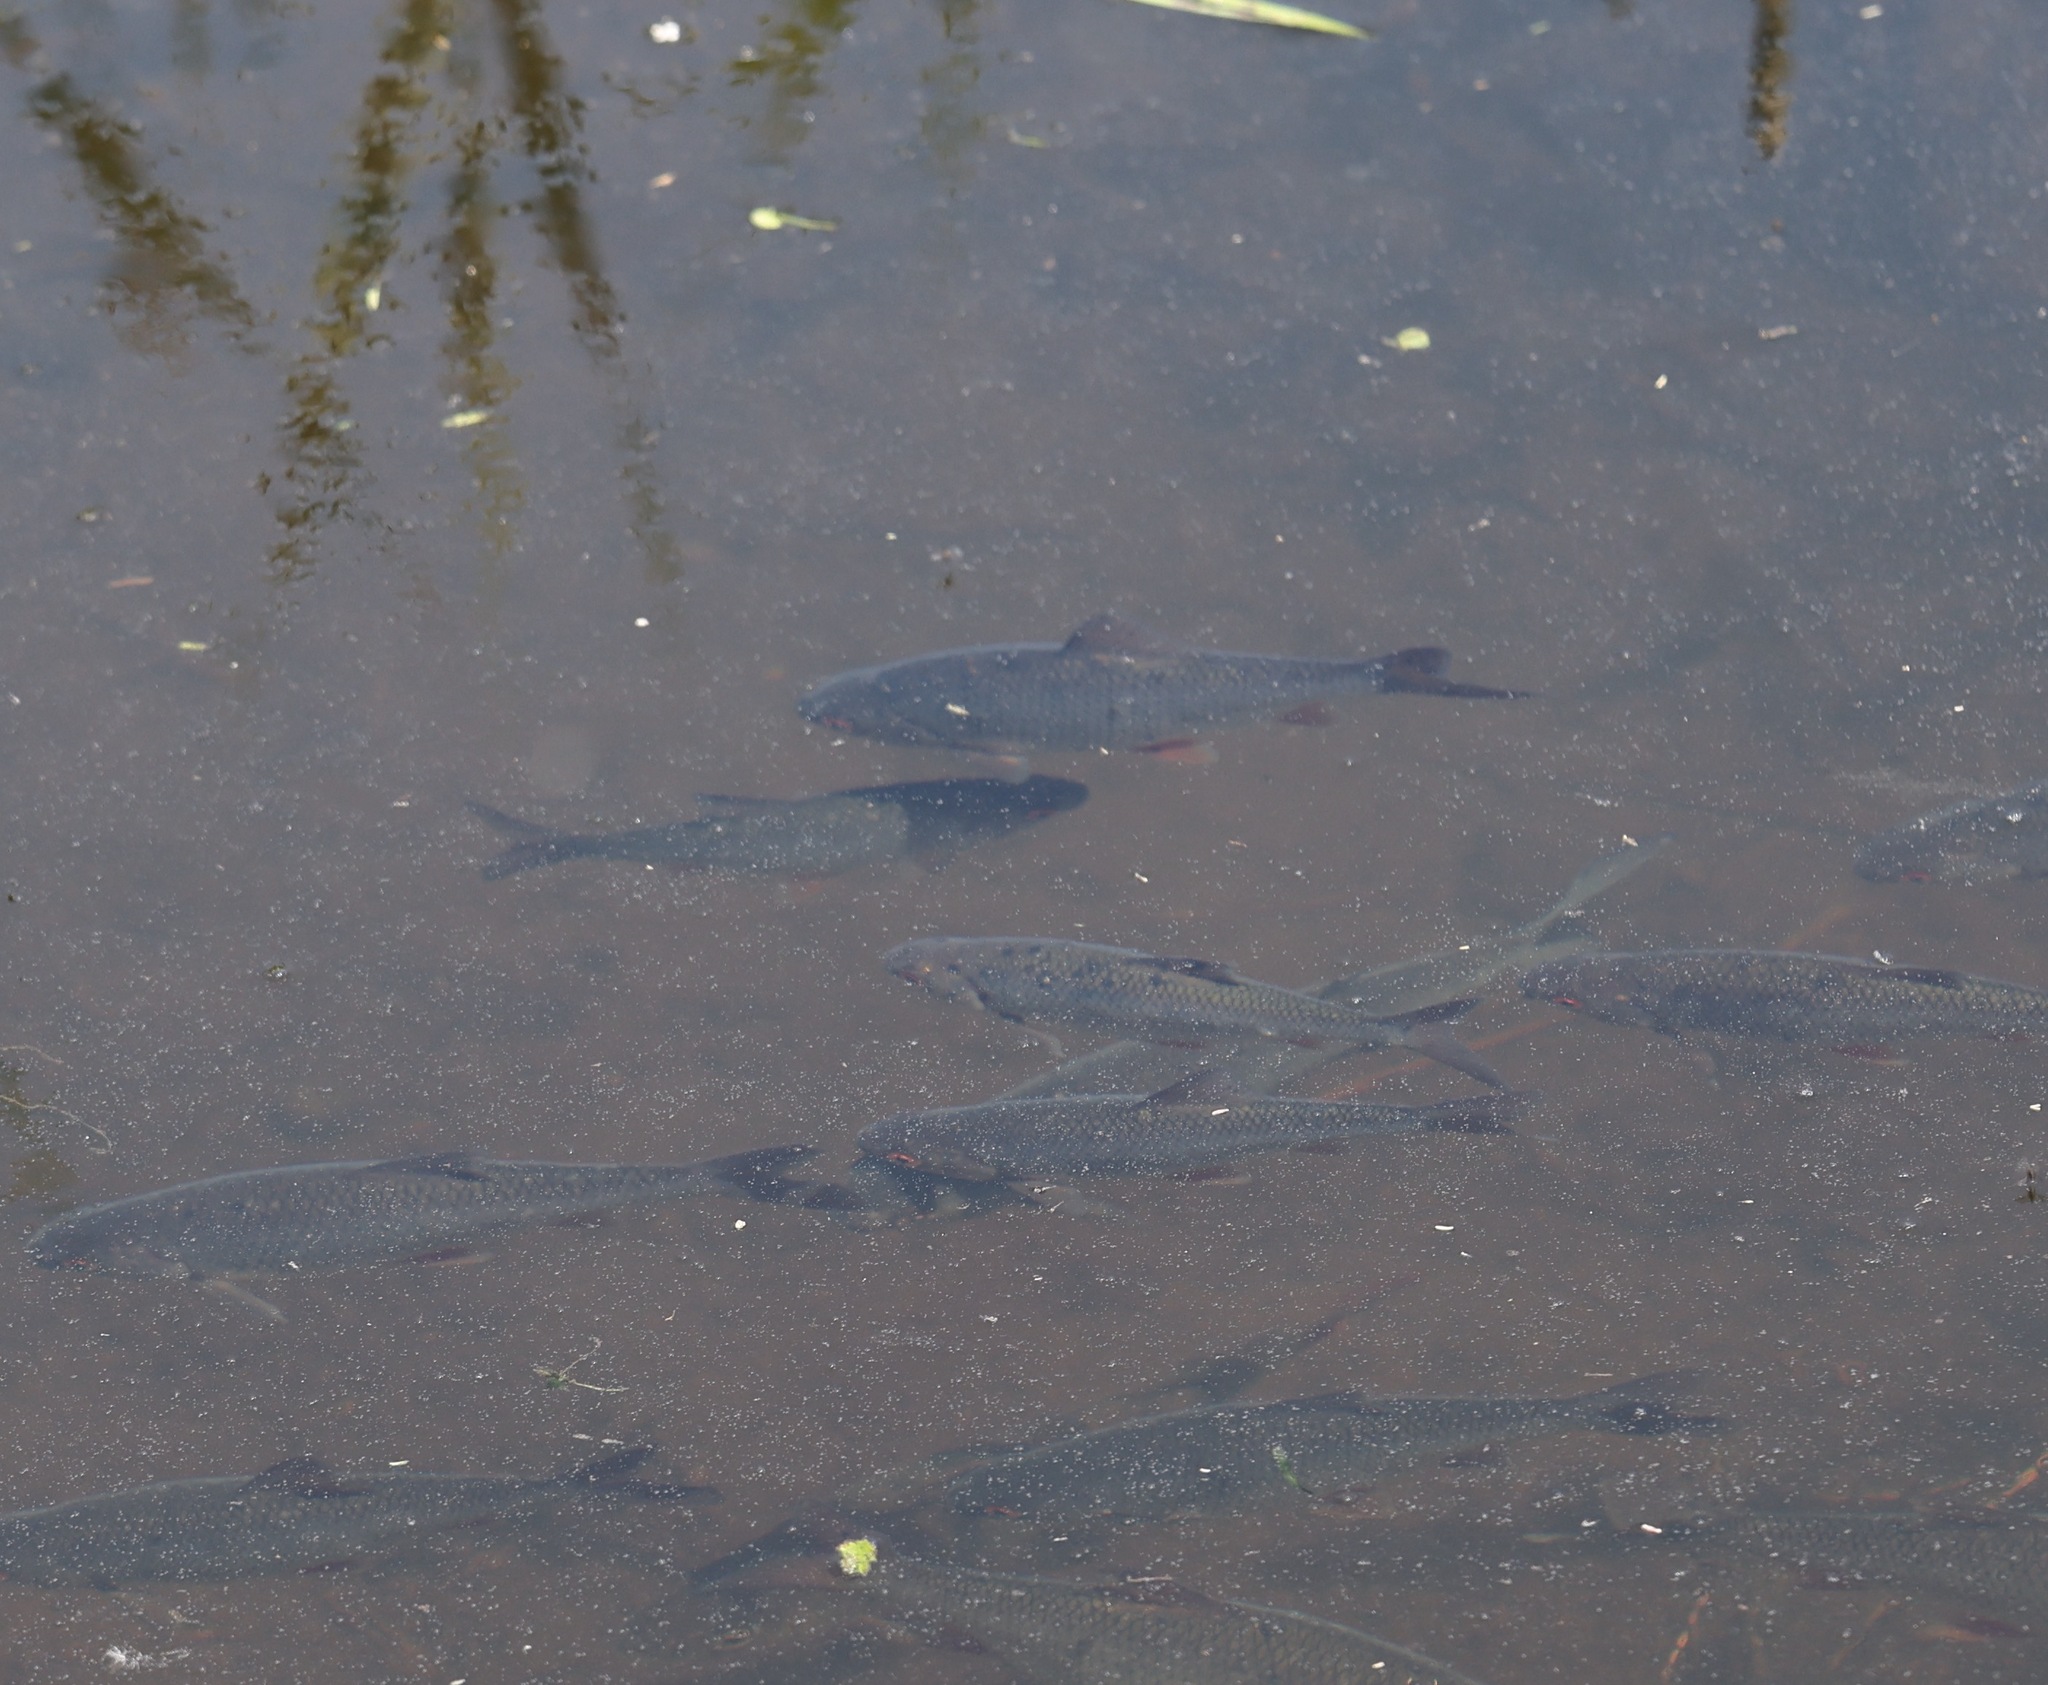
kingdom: Animalia
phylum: Chordata
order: Cypriniformes
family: Cyprinidae
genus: Rutilus
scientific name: Rutilus rutilus
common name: Roach
